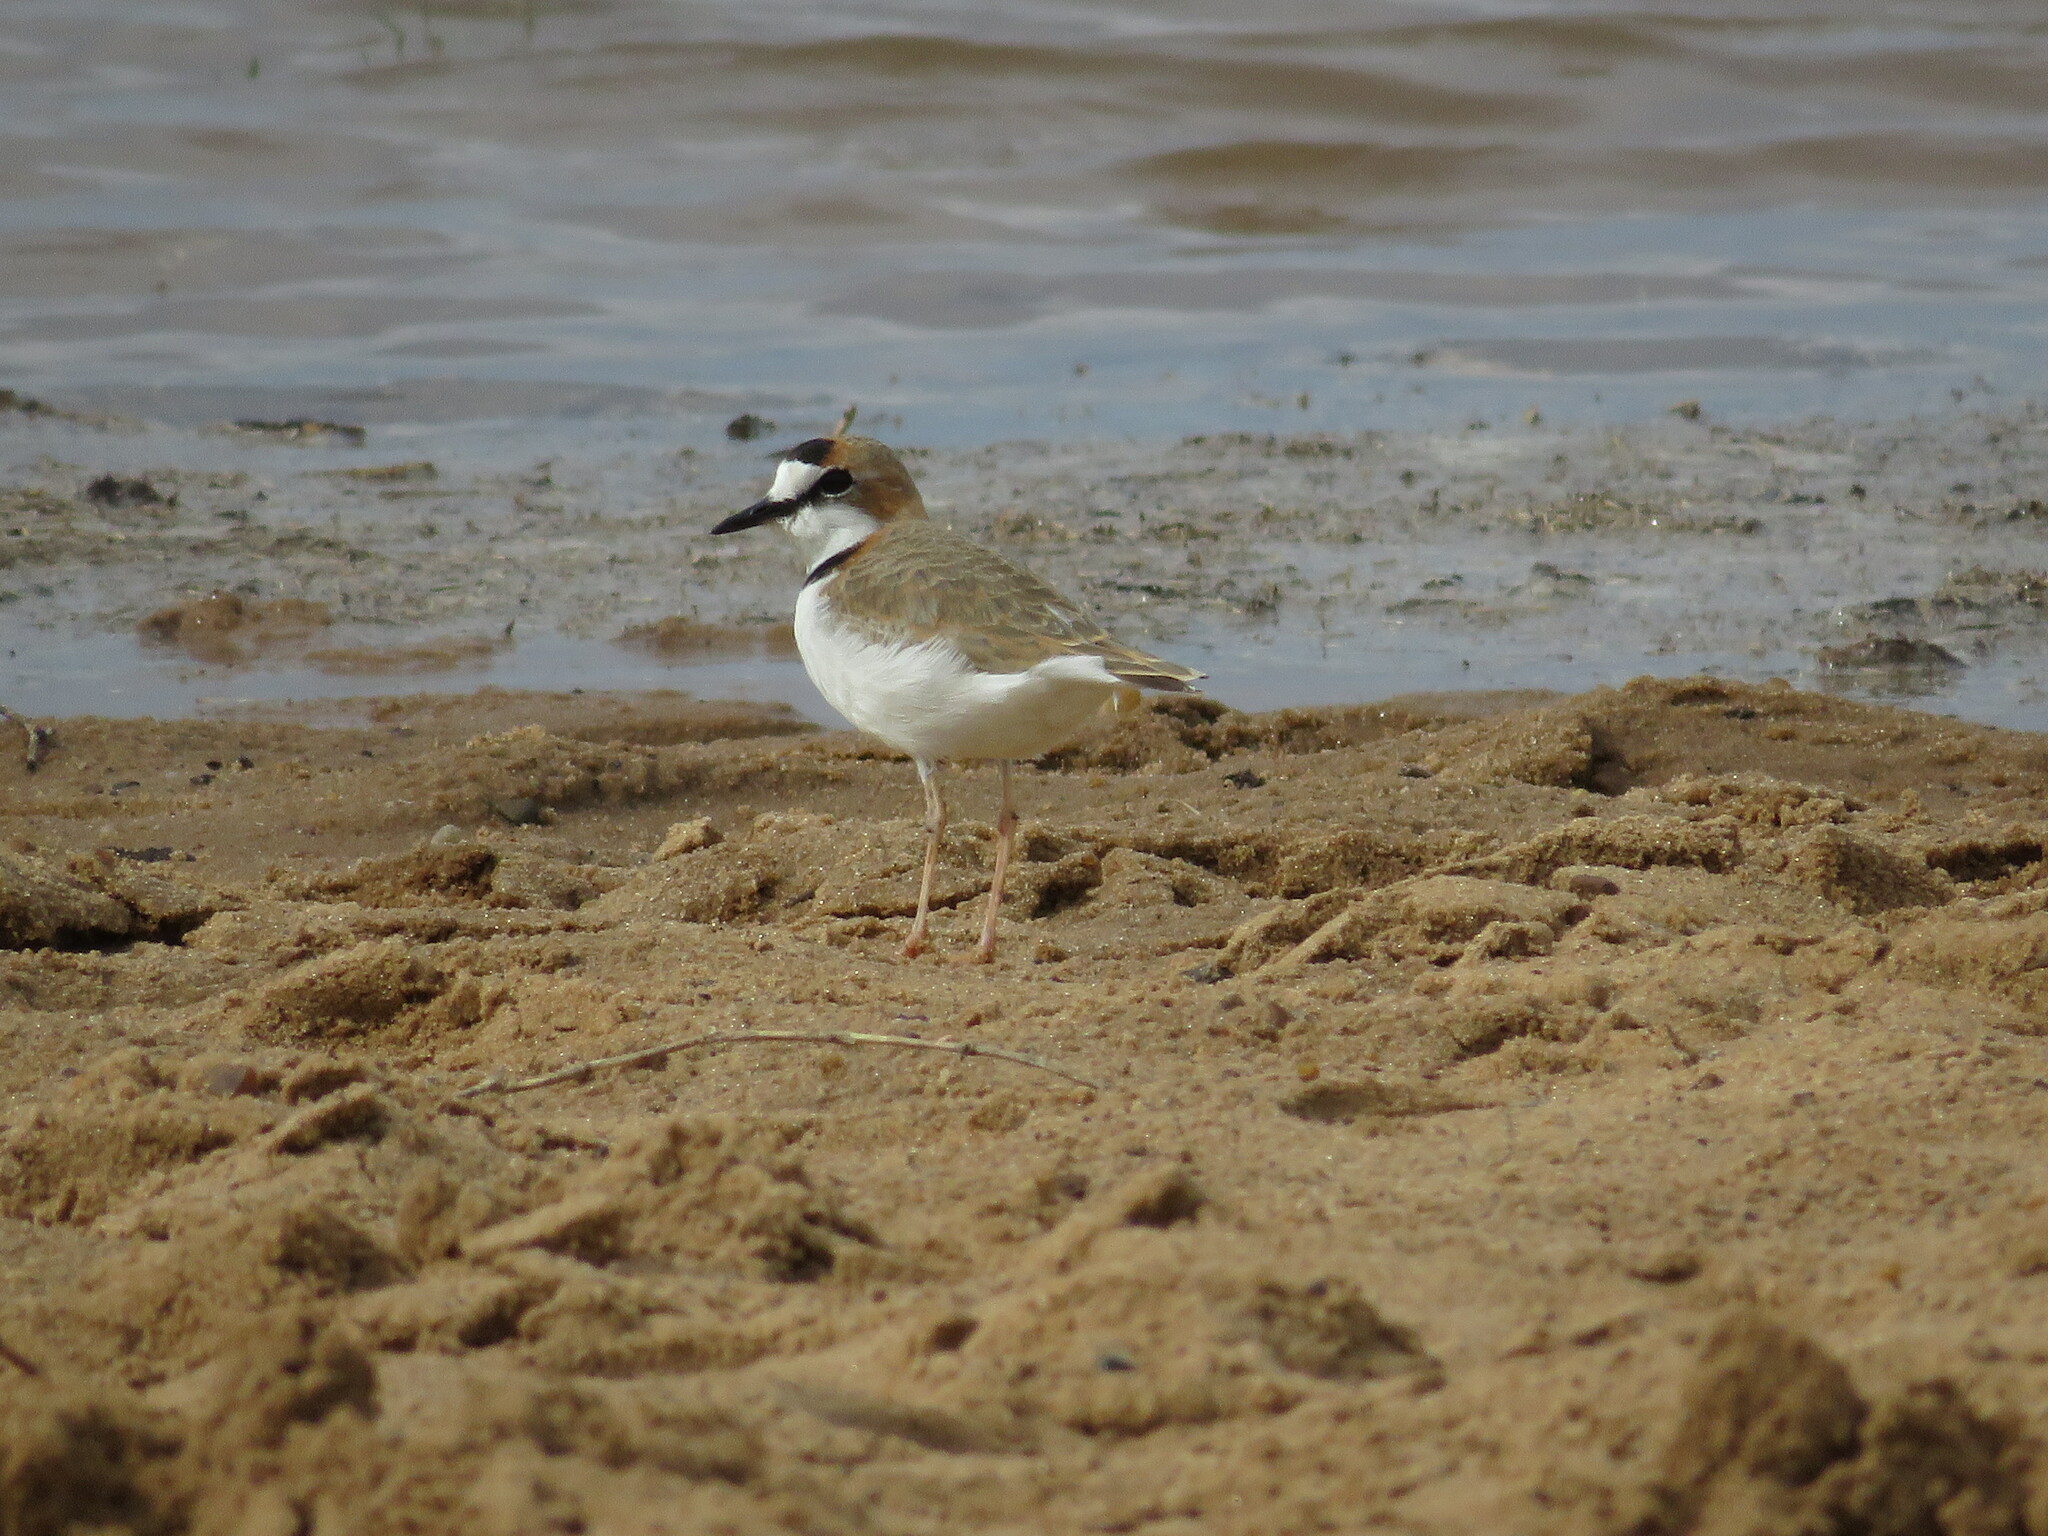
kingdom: Animalia
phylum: Chordata
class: Aves
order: Charadriiformes
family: Charadriidae
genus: Anarhynchus
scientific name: Anarhynchus
